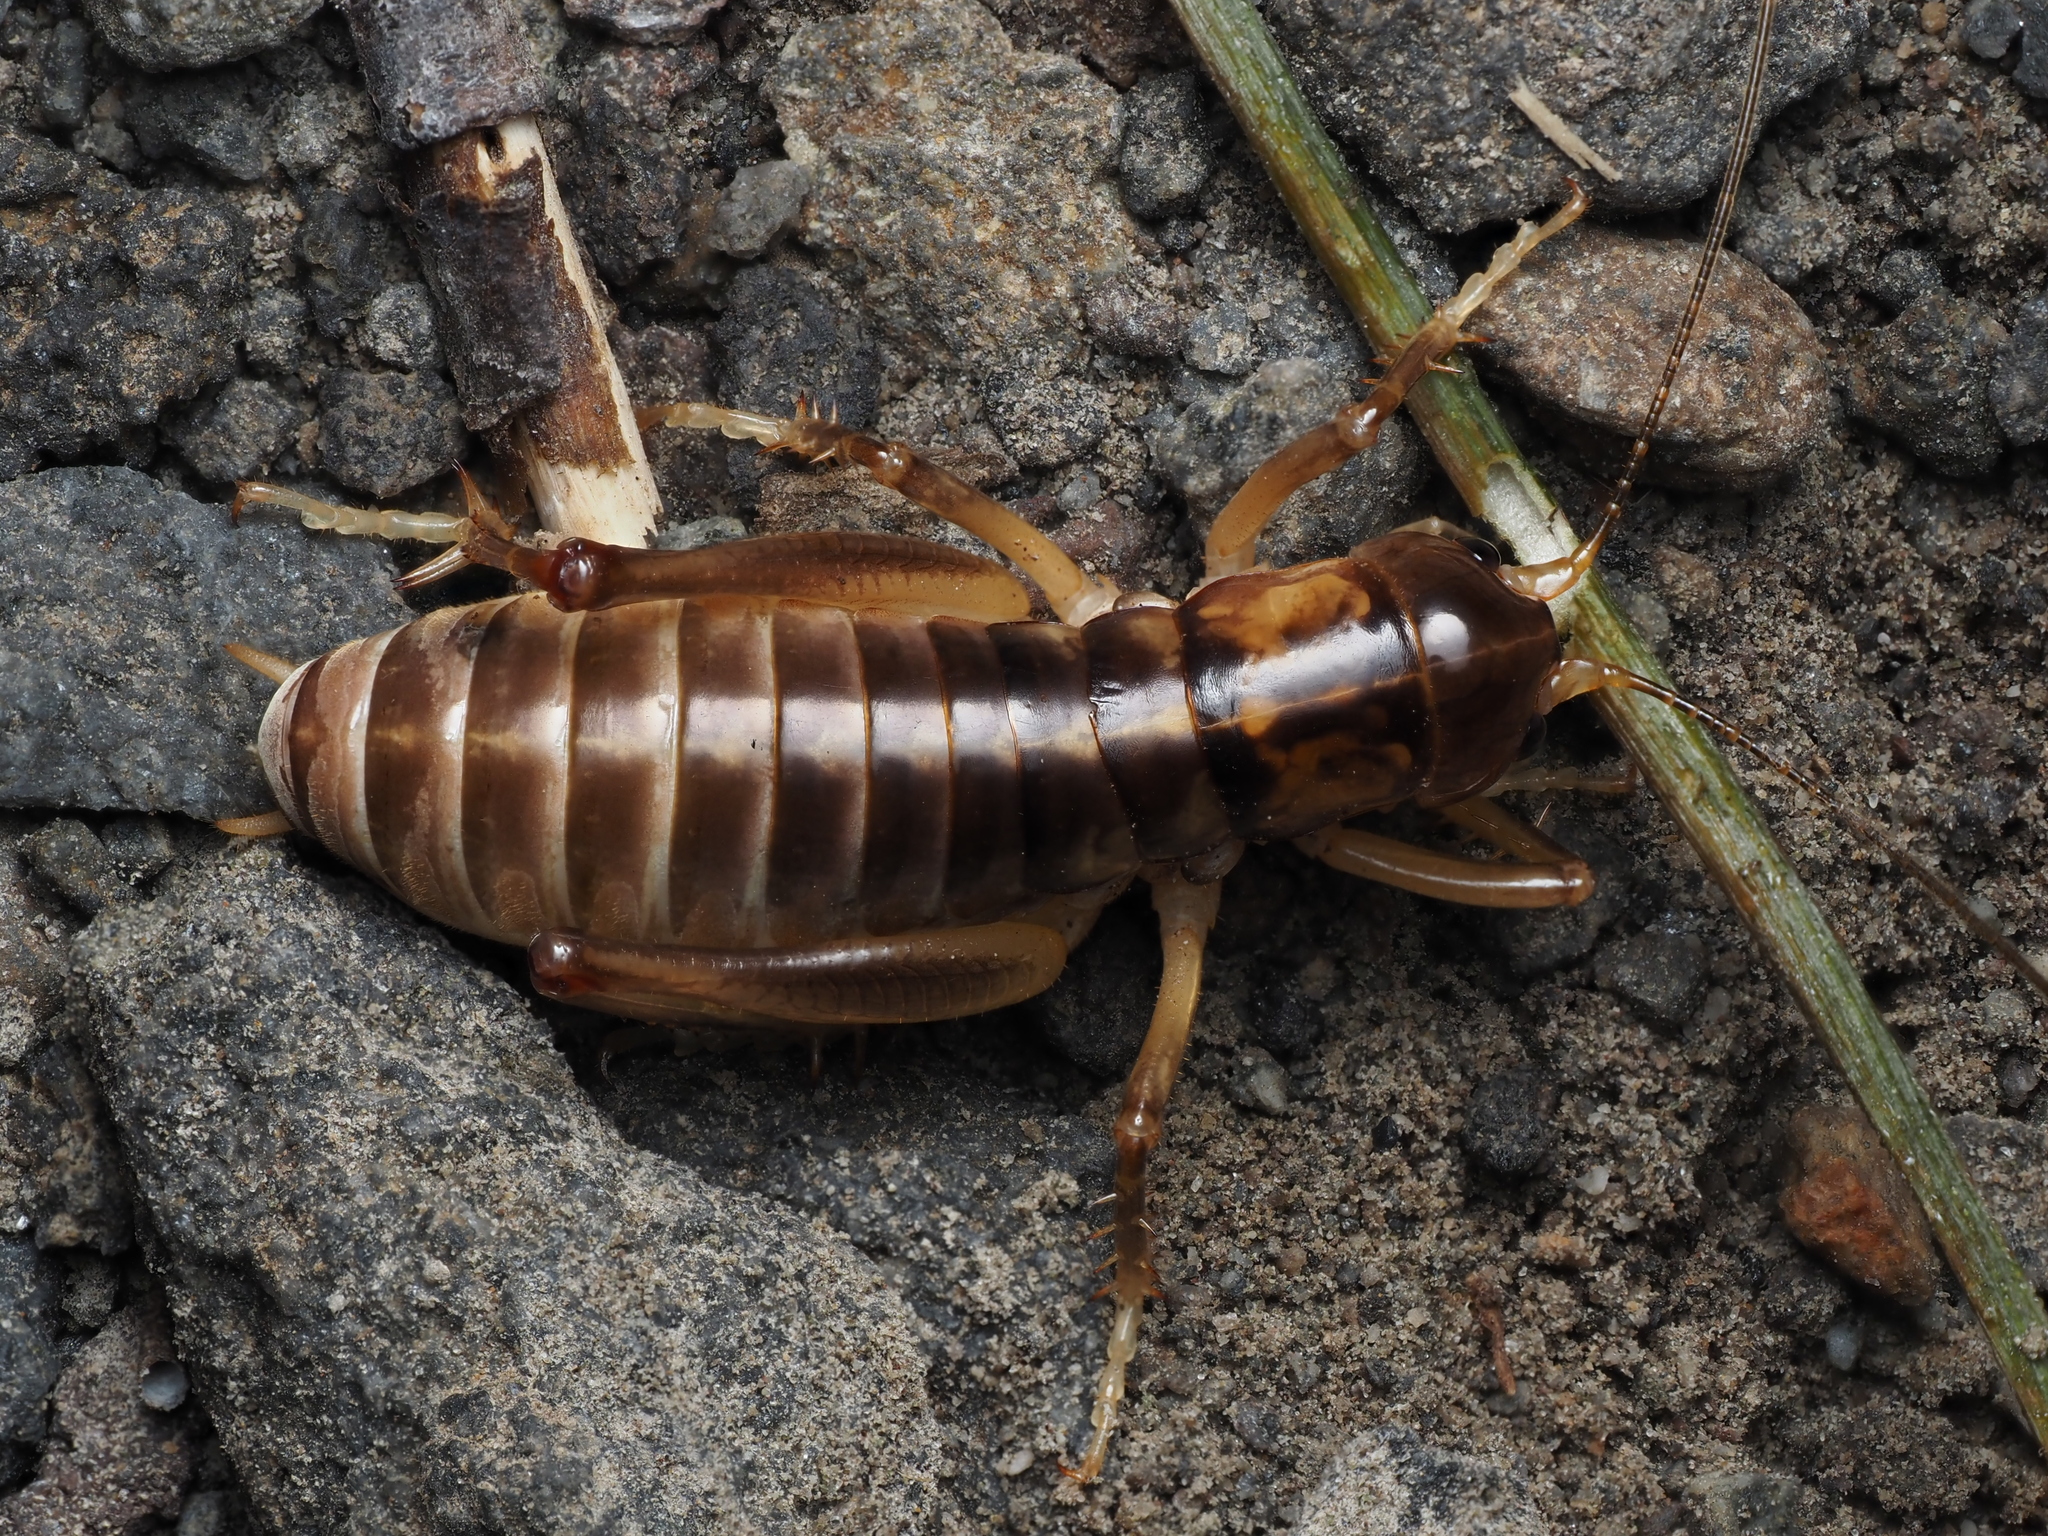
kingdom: Animalia
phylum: Arthropoda
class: Insecta
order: Orthoptera
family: Anostostomatidae
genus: Hemiandrus
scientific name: Hemiandrus pallitarsis
